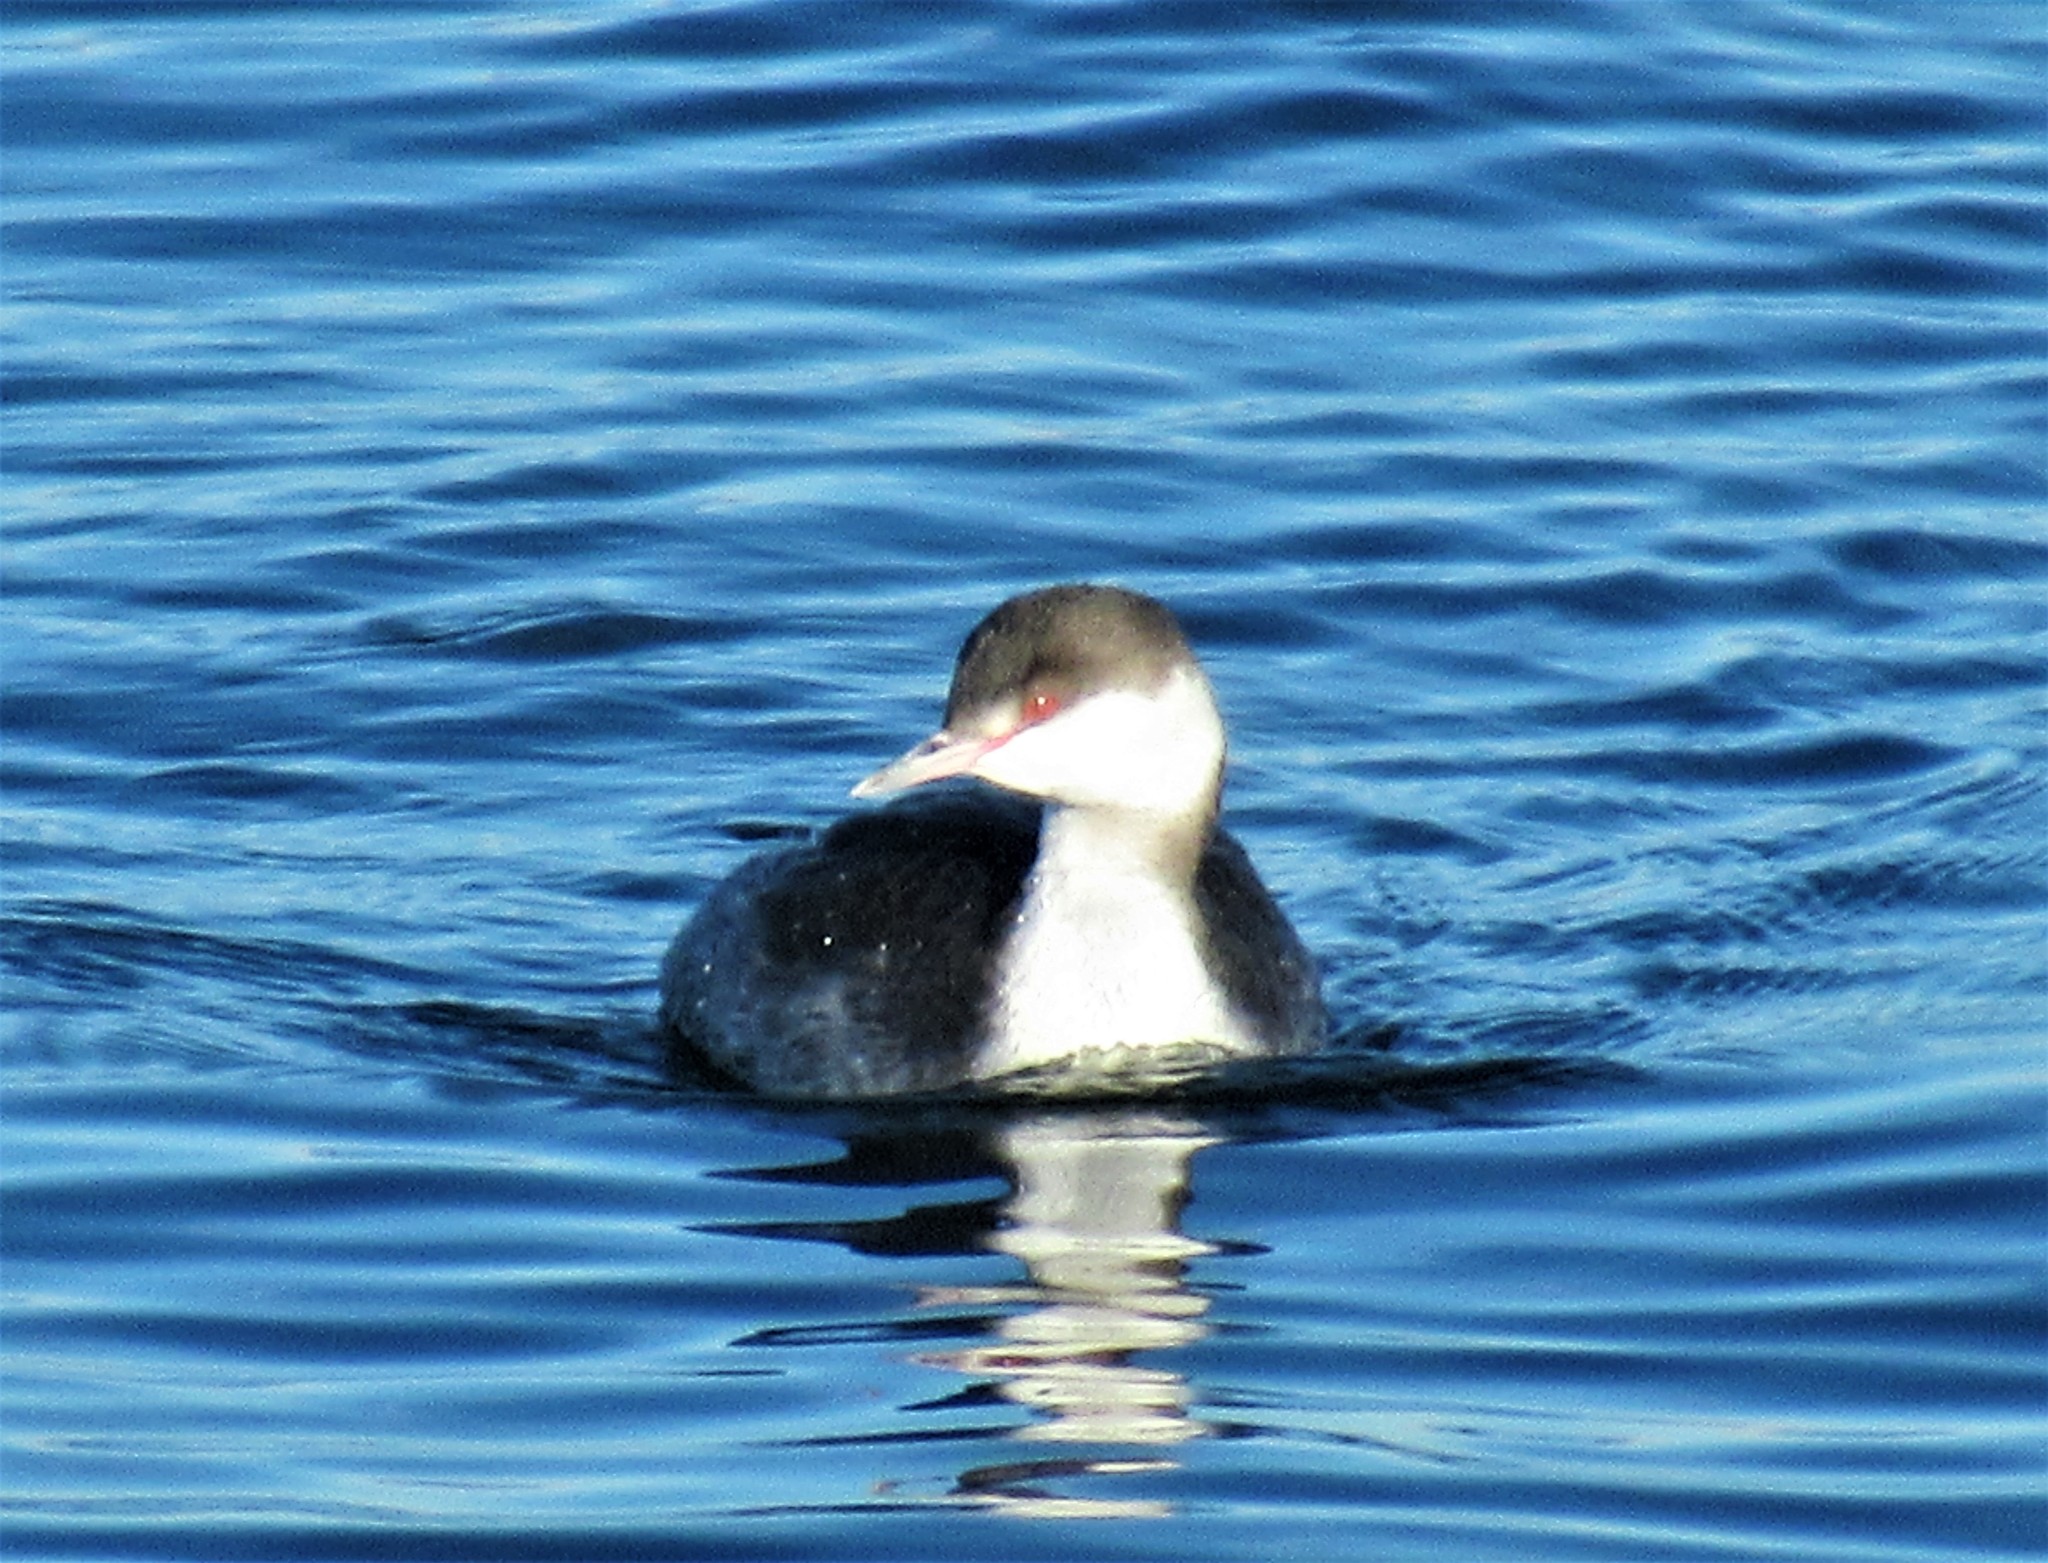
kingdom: Animalia
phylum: Chordata
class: Aves
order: Podicipediformes
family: Podicipedidae
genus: Podiceps
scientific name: Podiceps auritus
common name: Horned grebe
